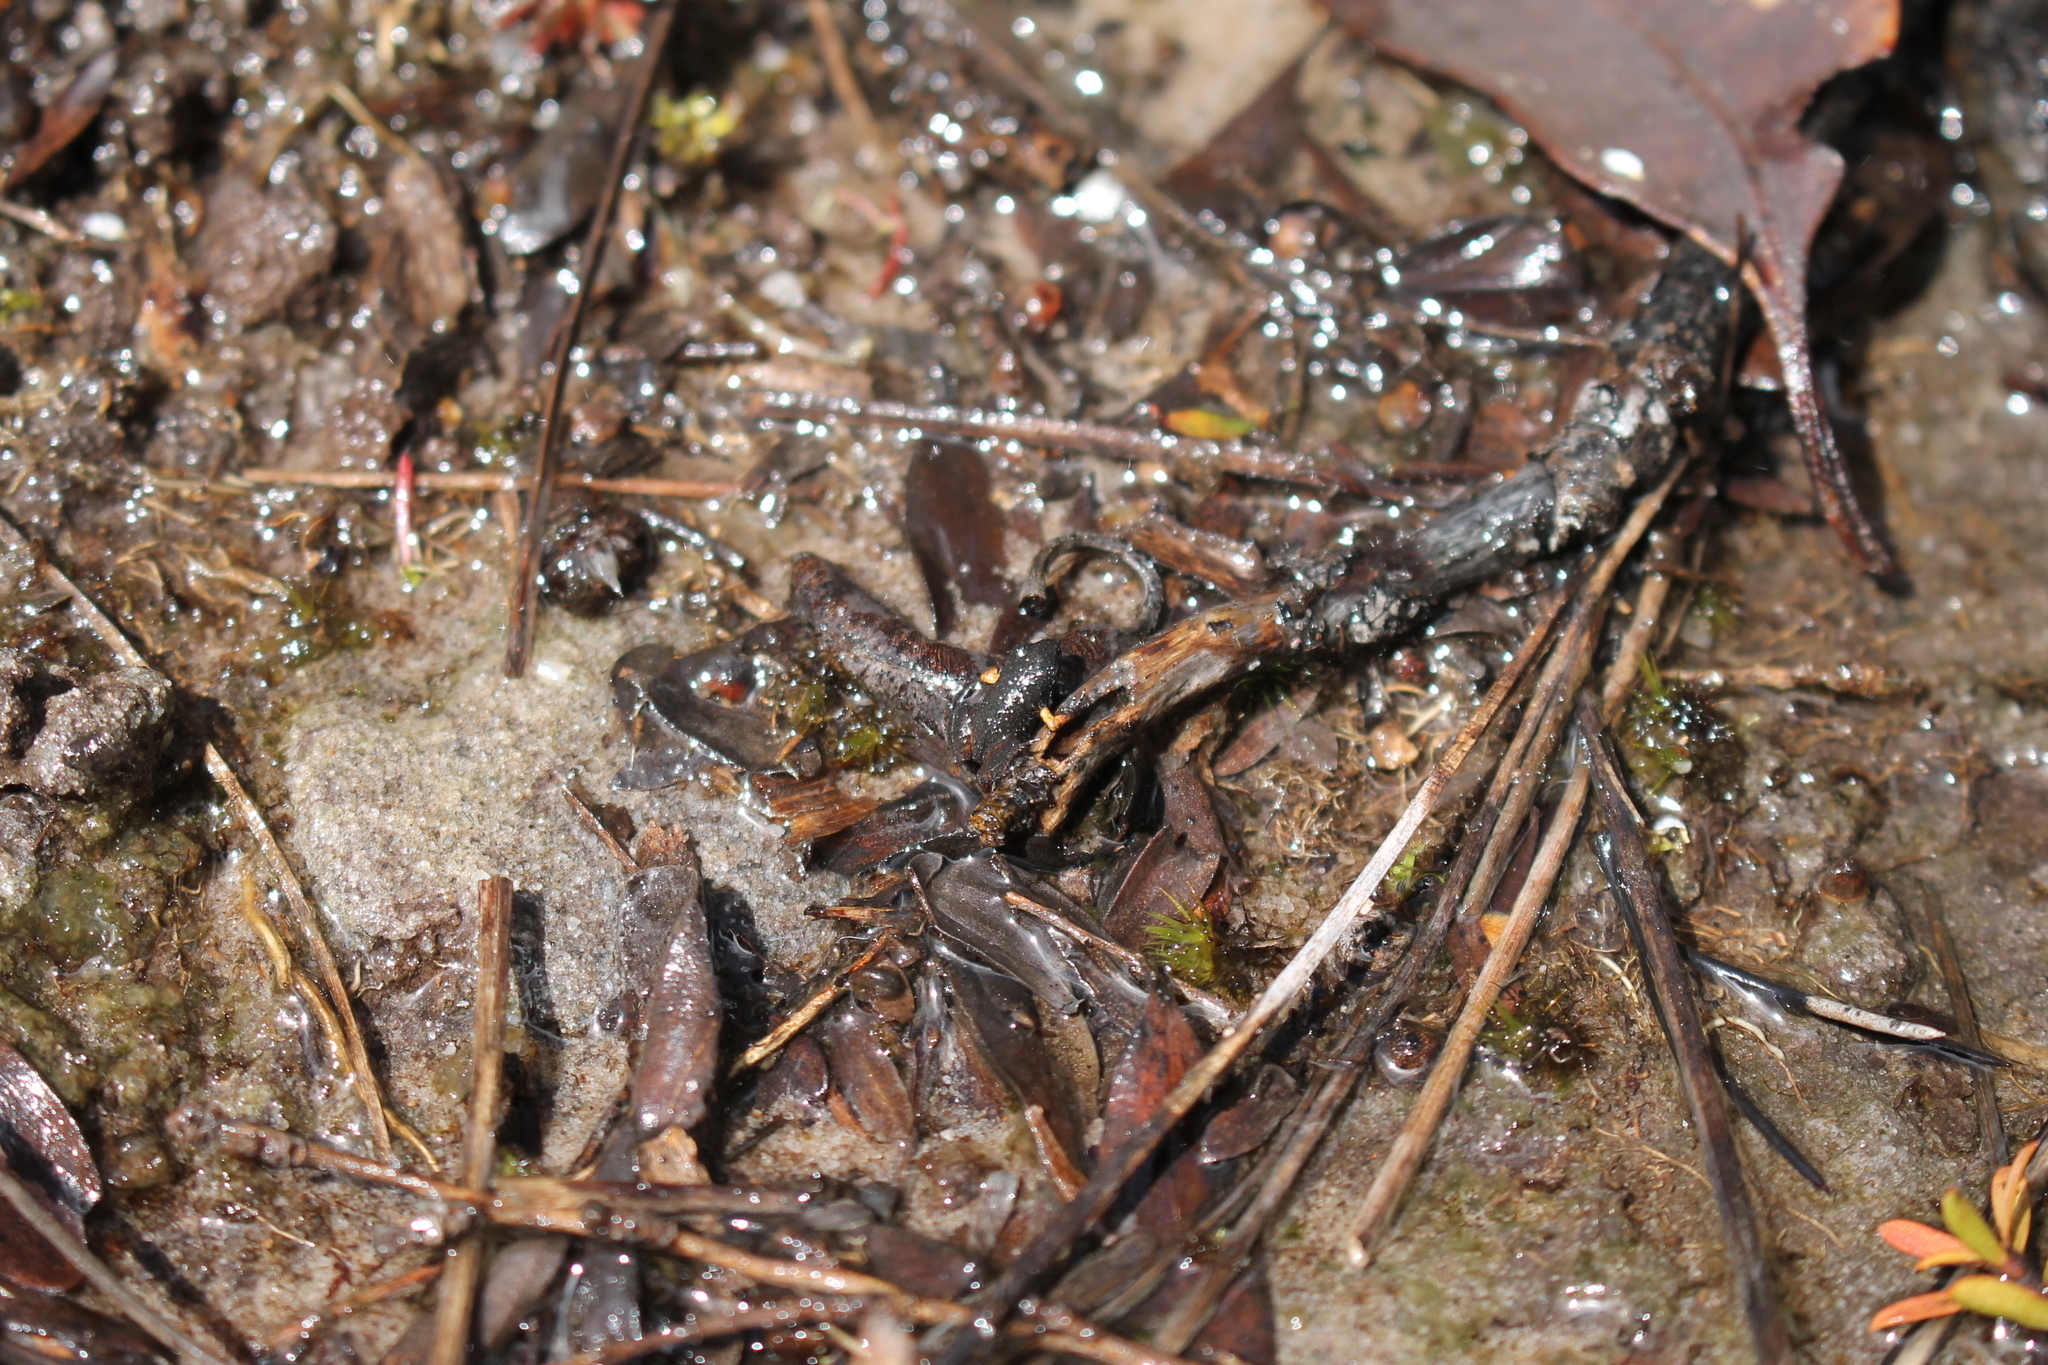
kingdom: Animalia
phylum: Chordata
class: Amphibia
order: Anura
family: Myobatrachidae
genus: Geocrinia
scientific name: Geocrinia leai
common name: Lea’s frog
